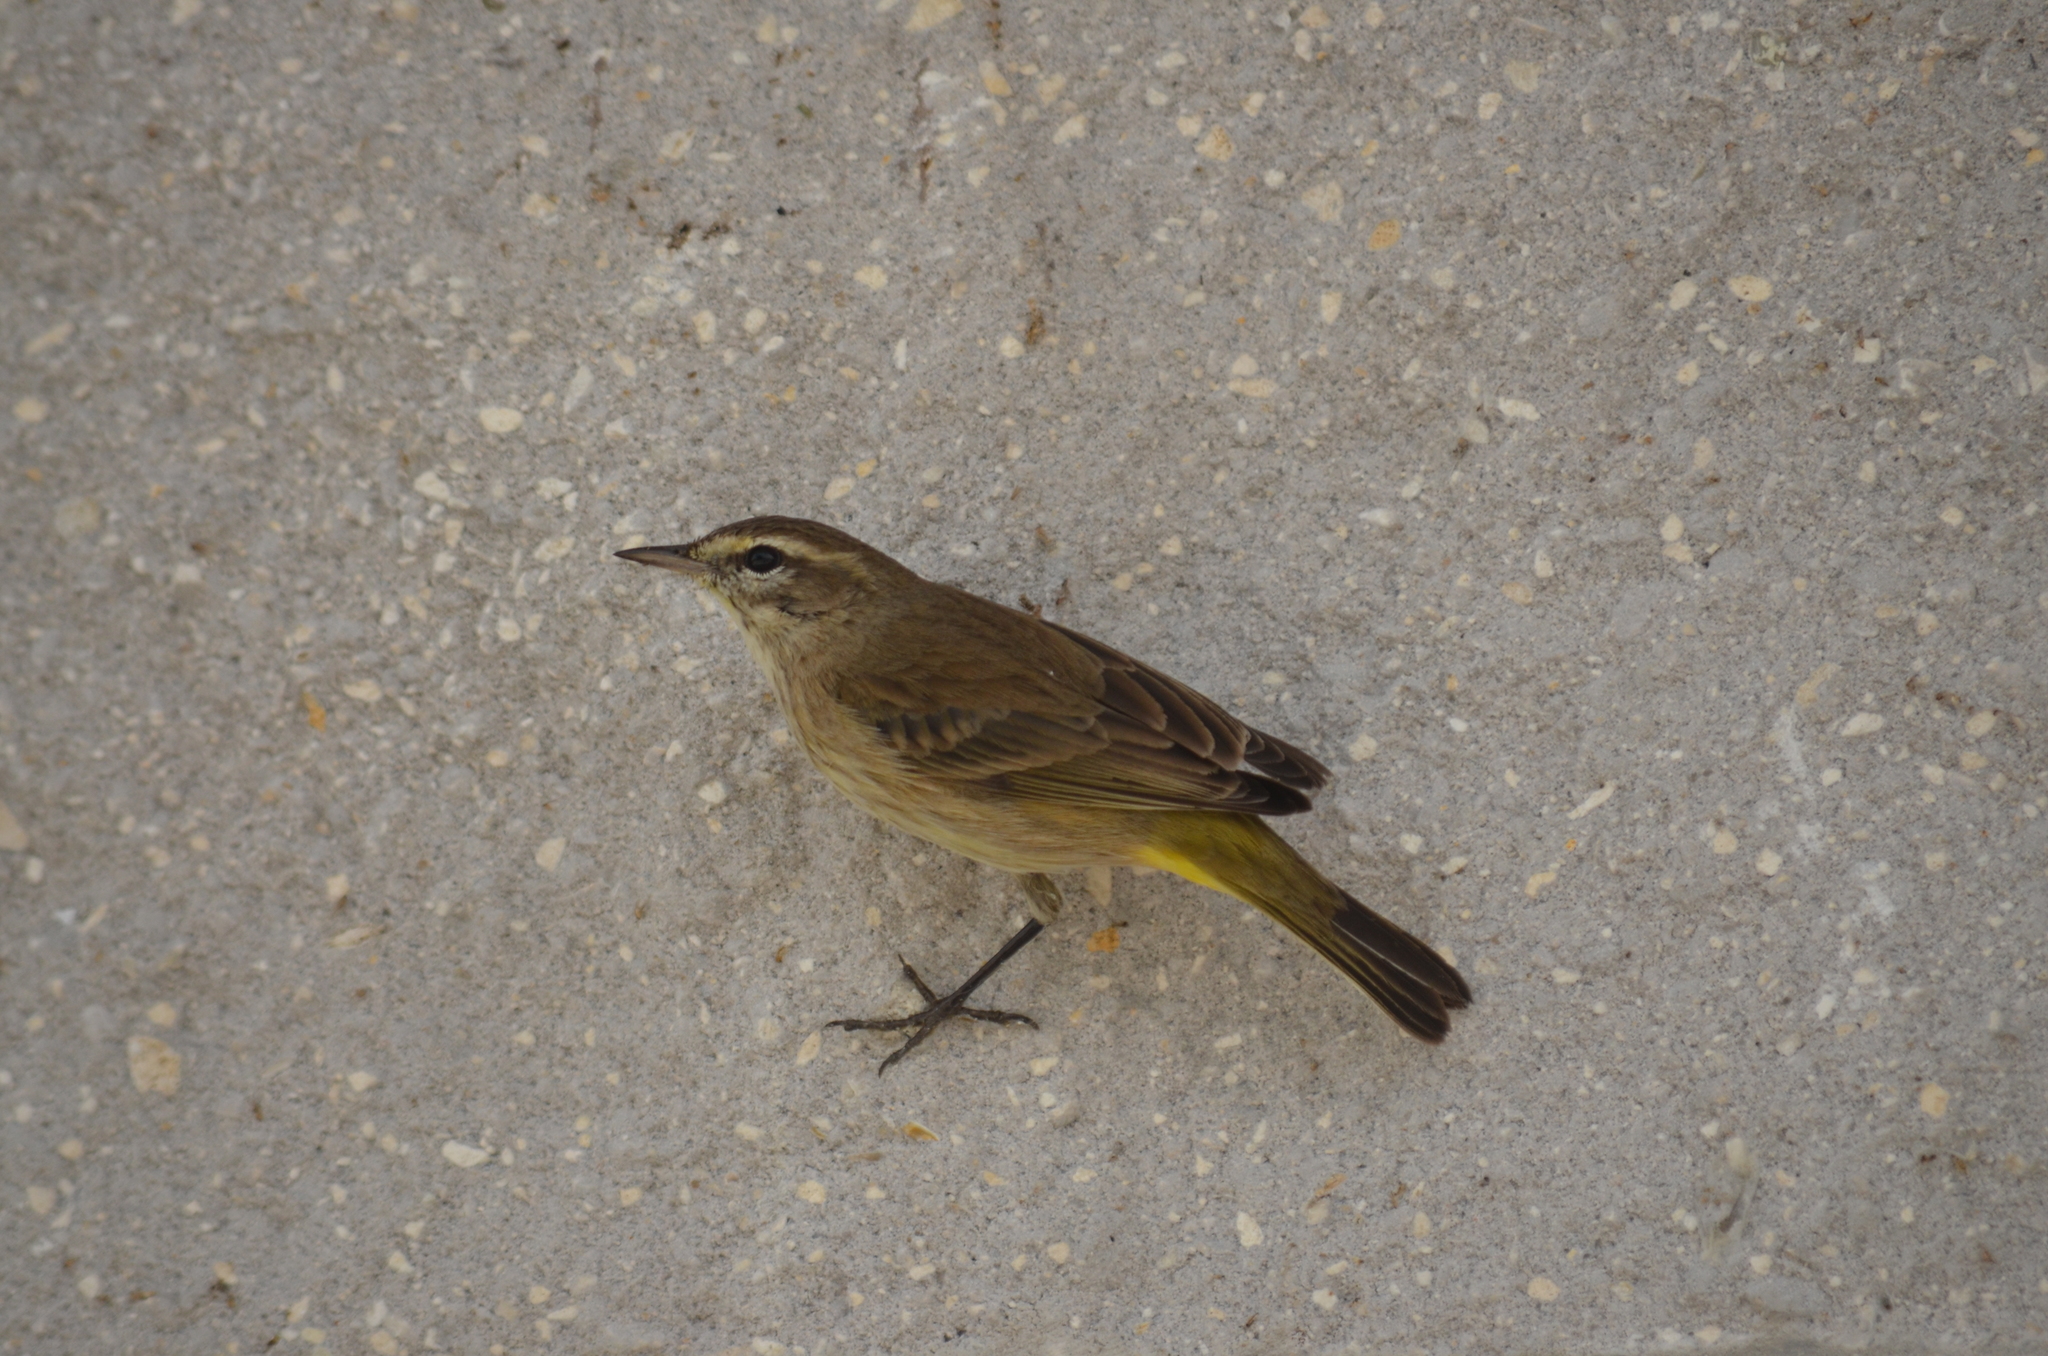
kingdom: Animalia
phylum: Chordata
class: Aves
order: Passeriformes
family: Parulidae
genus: Setophaga
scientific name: Setophaga palmarum
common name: Palm warbler
